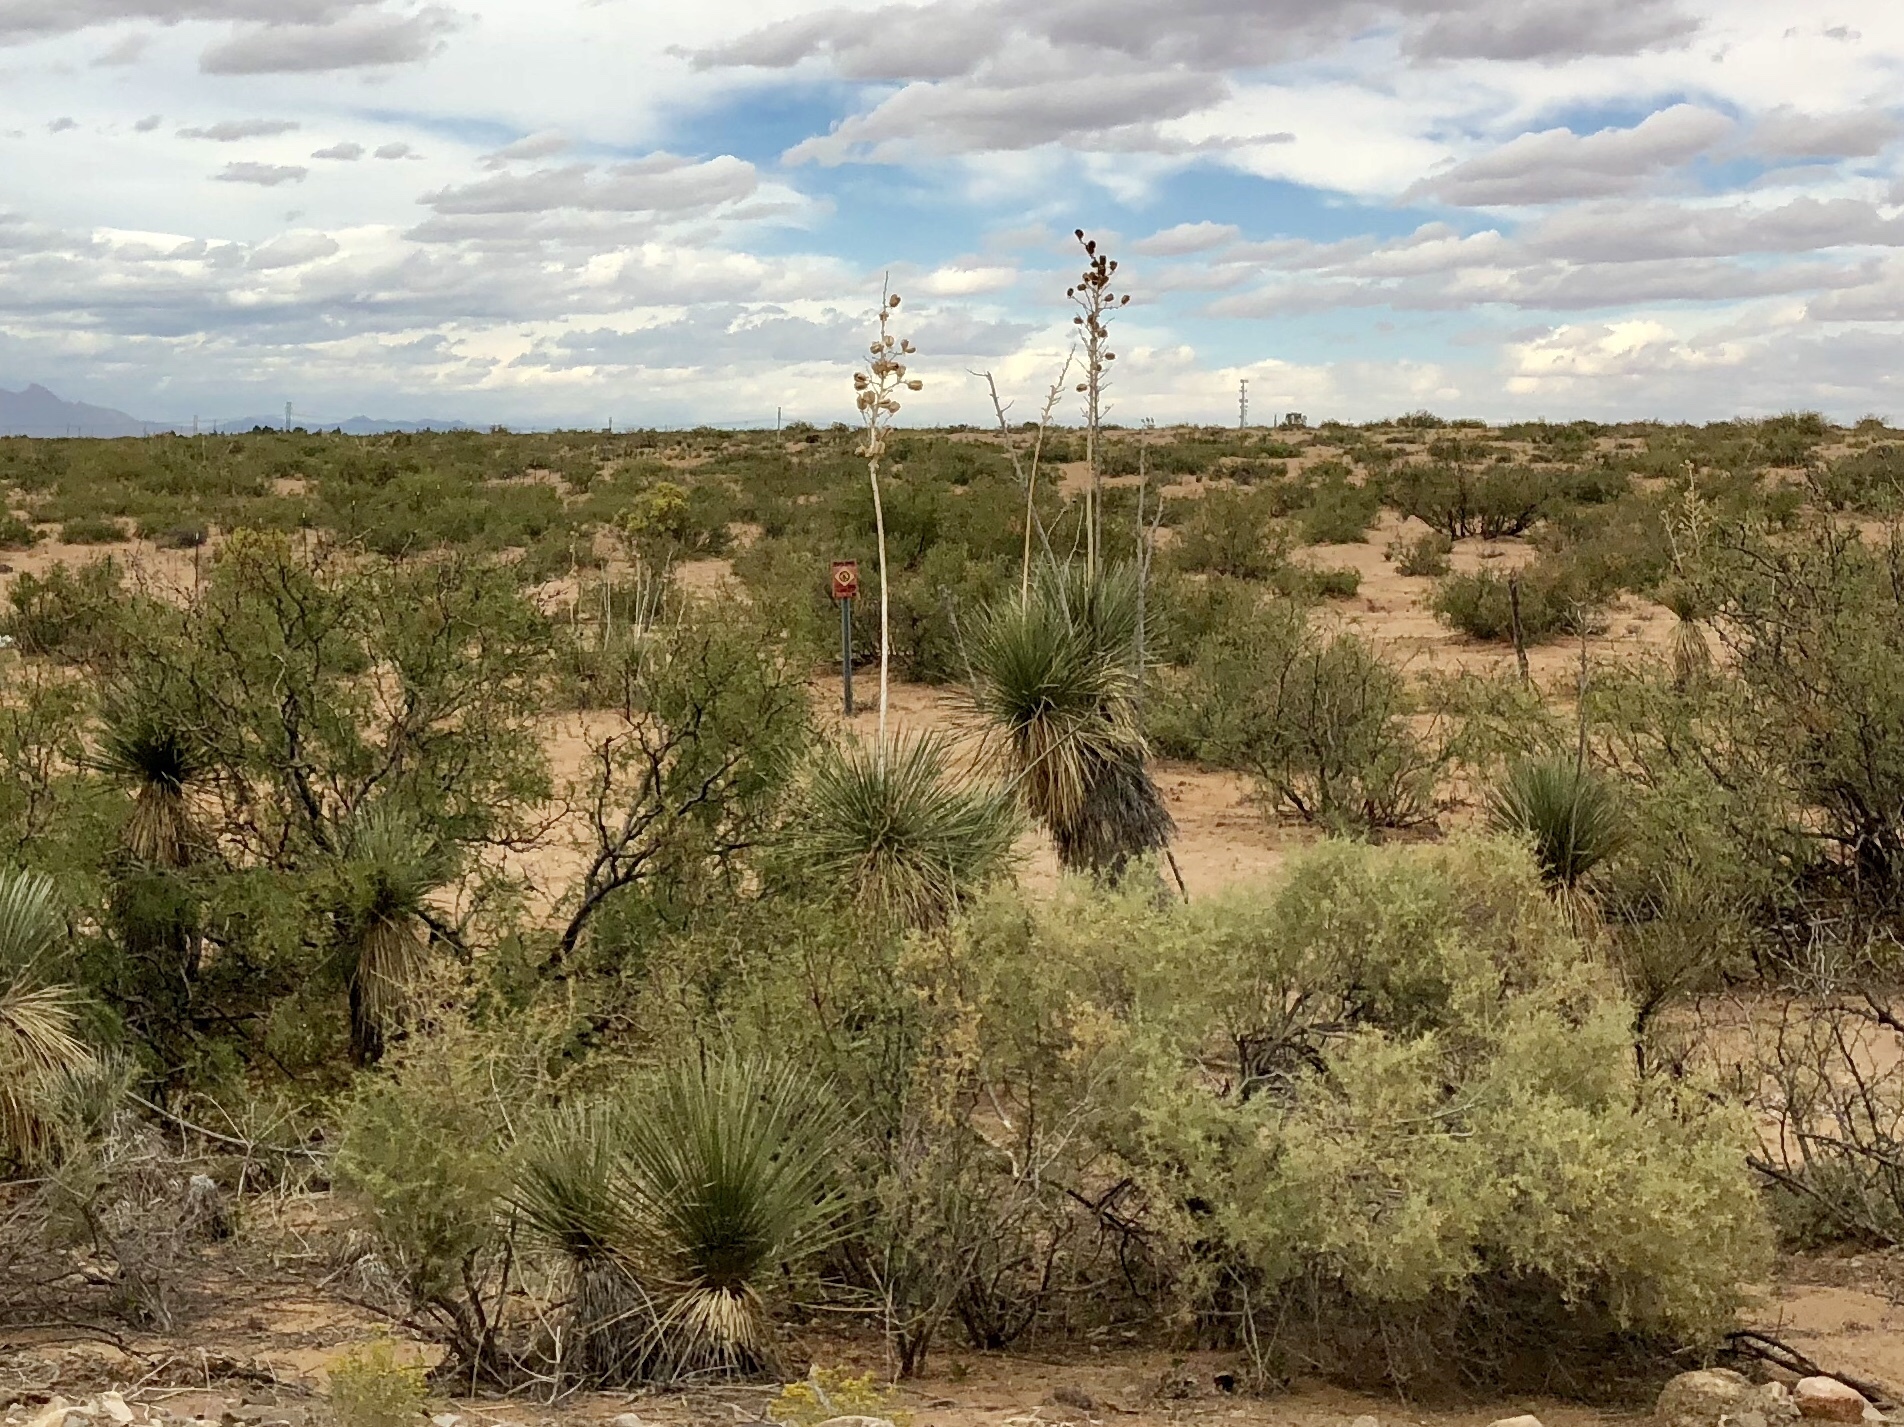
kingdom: Plantae
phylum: Tracheophyta
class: Liliopsida
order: Asparagales
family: Asparagaceae
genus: Yucca
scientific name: Yucca elata
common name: Palmella
